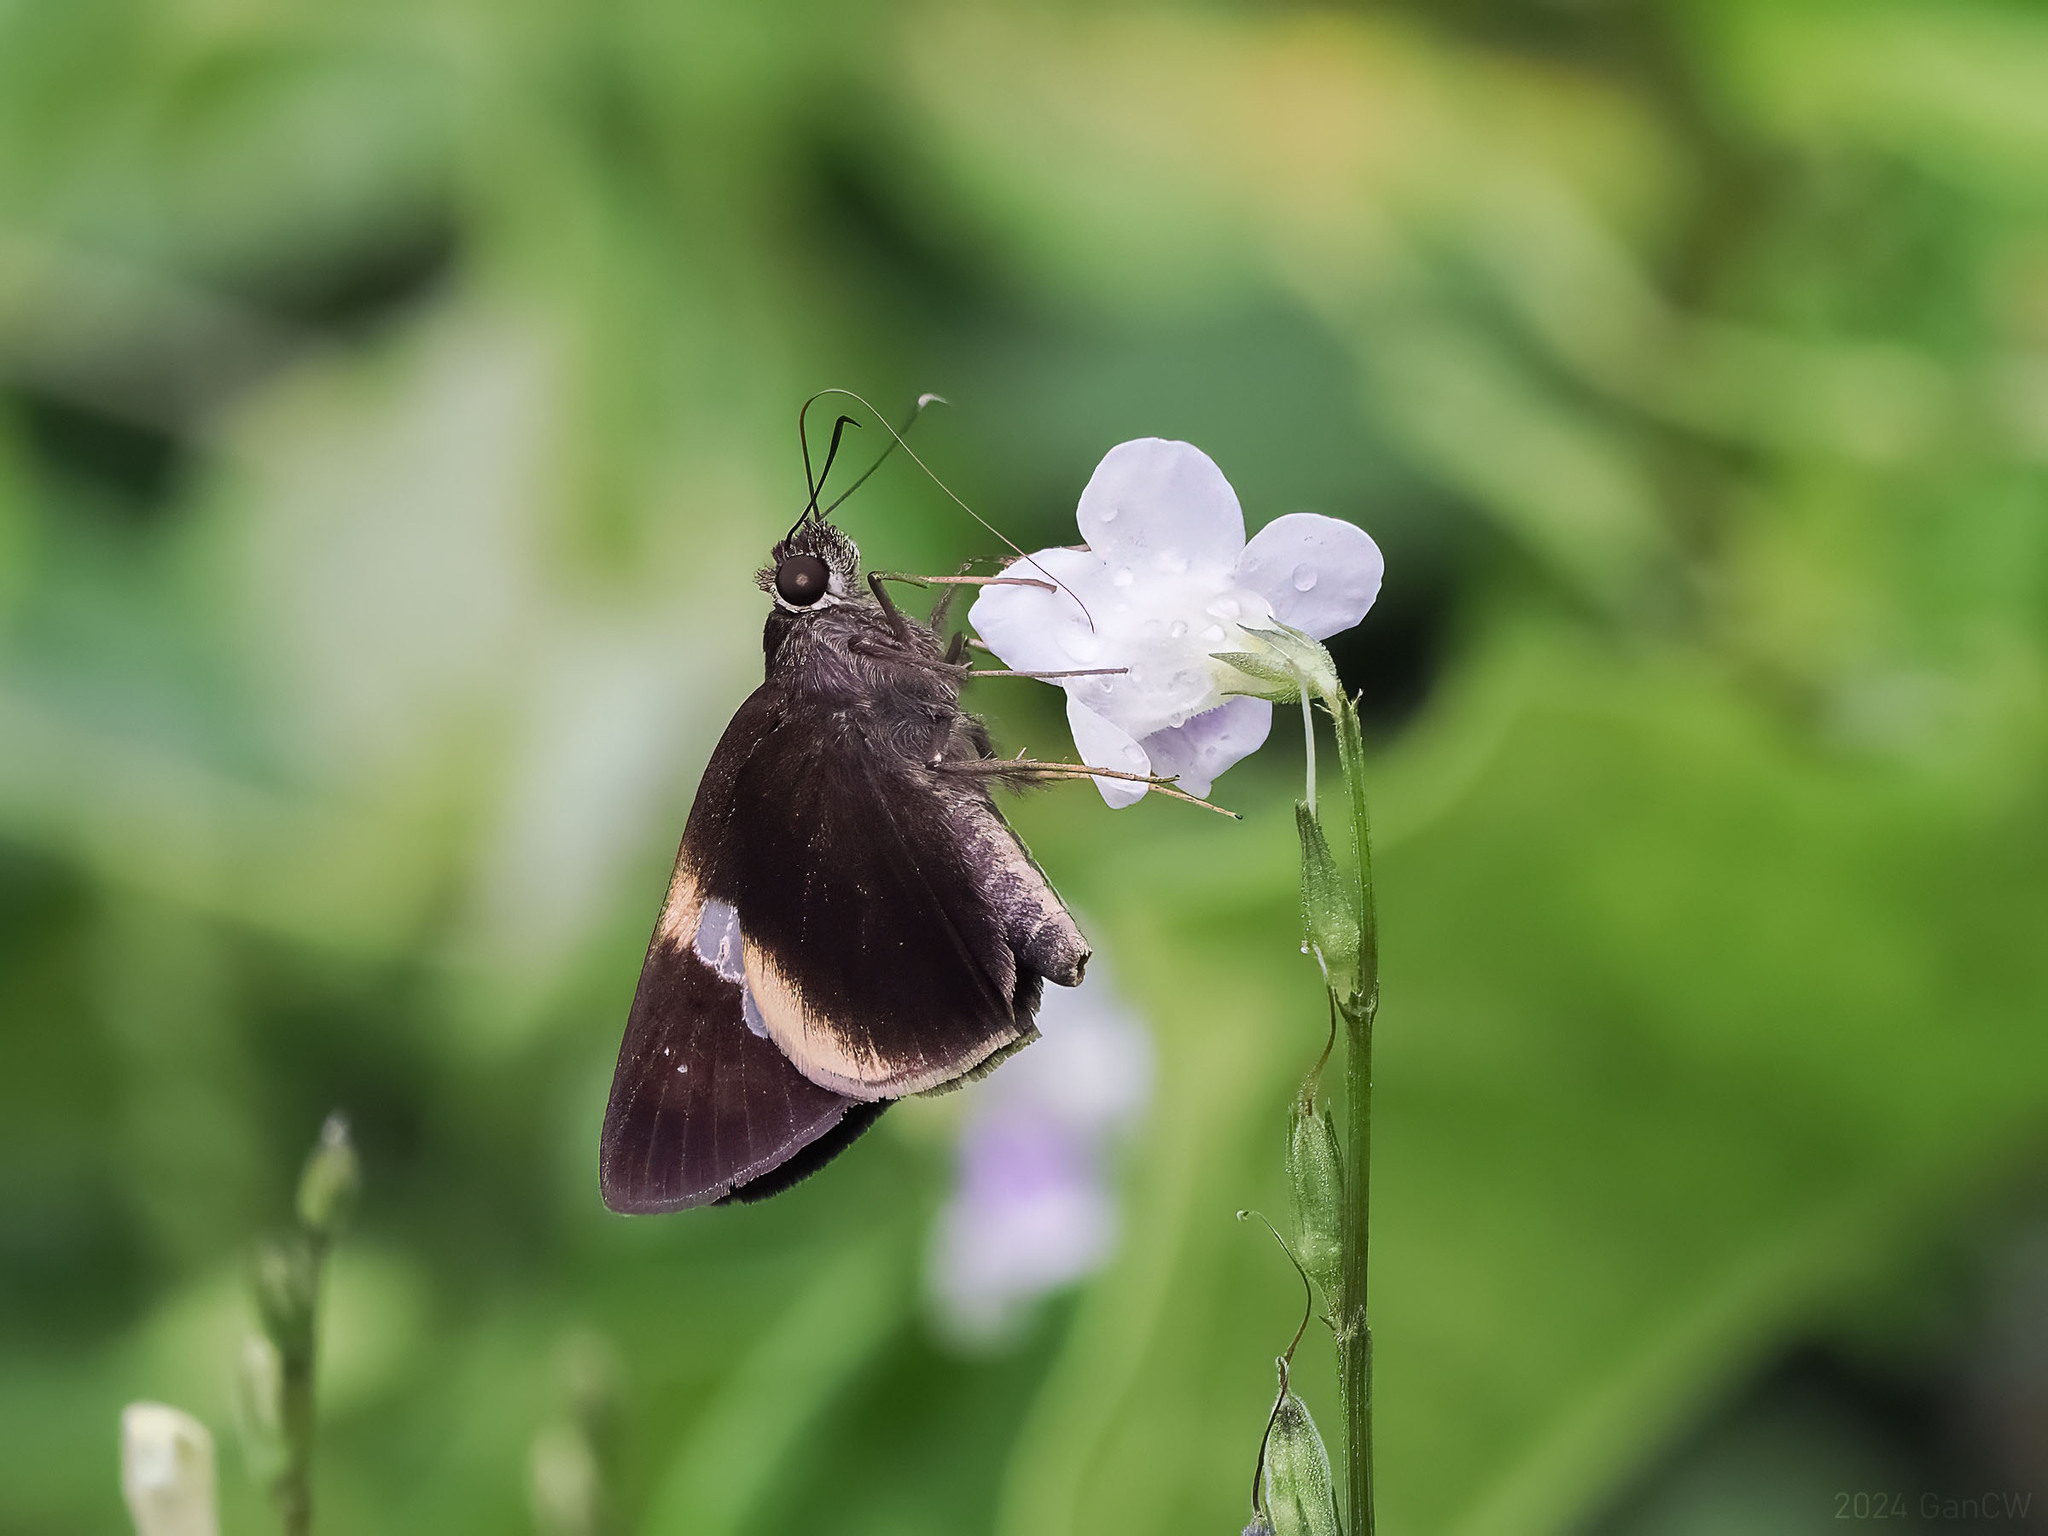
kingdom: Animalia
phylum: Arthropoda
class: Insecta
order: Lepidoptera
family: Hesperiidae
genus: Lotongus
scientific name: Lotongus calathus
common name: White-tipped palmer
